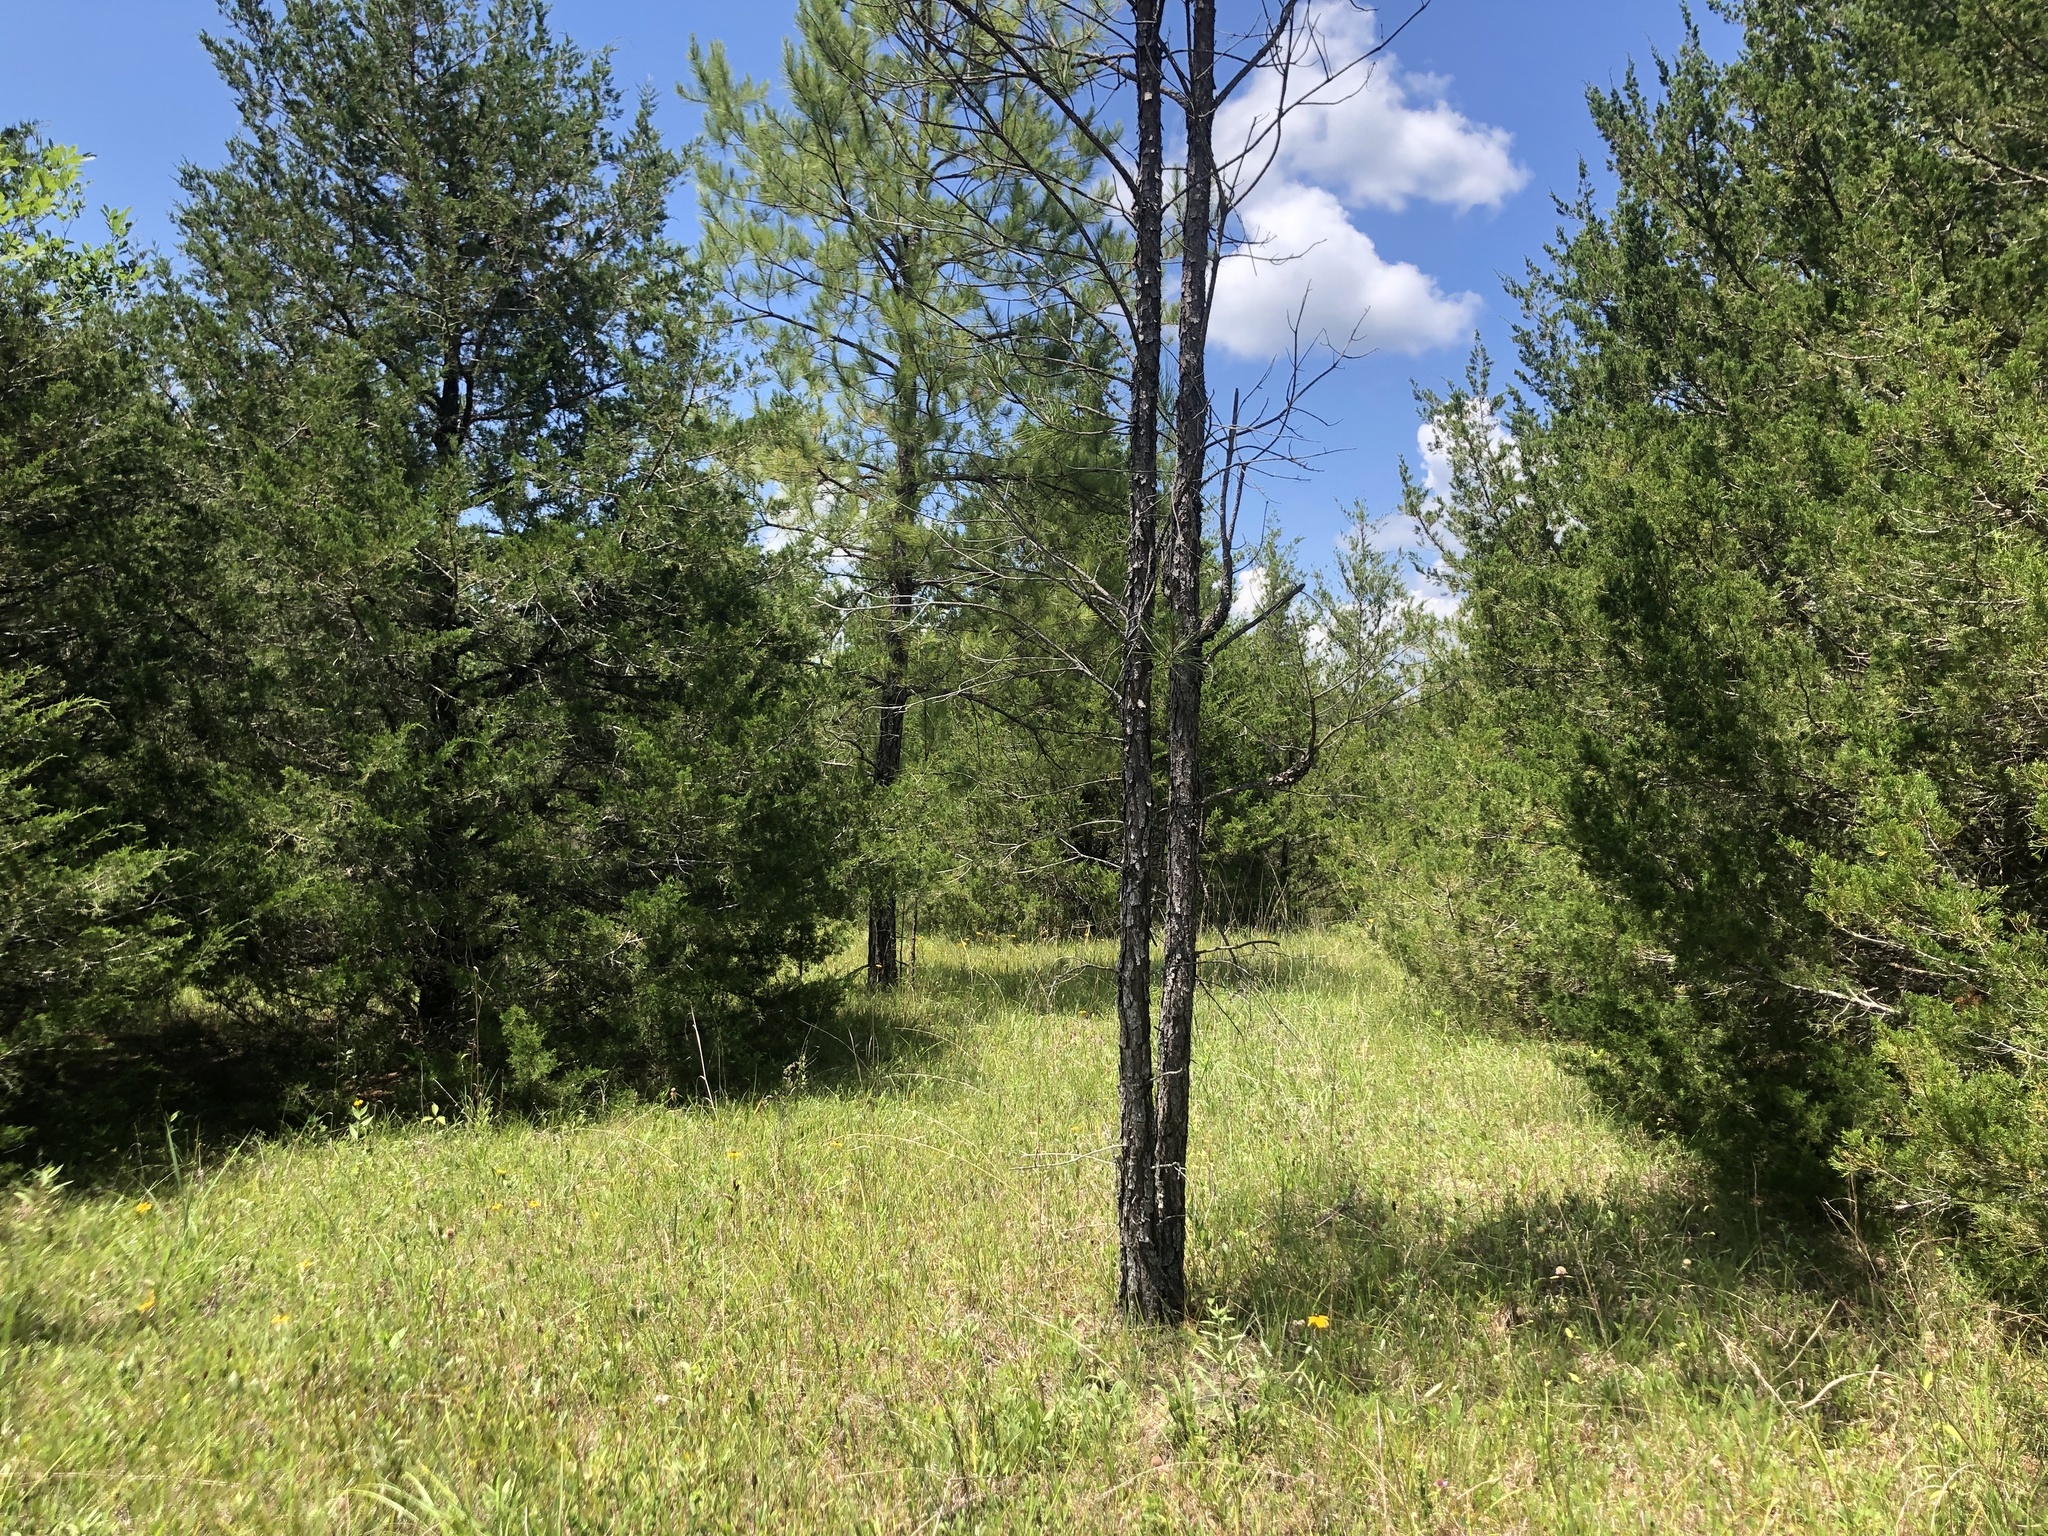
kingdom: Plantae
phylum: Tracheophyta
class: Magnoliopsida
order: Fabales
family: Fabaceae
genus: Dalea
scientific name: Dalea purpurea
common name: Purple prairie-clover
